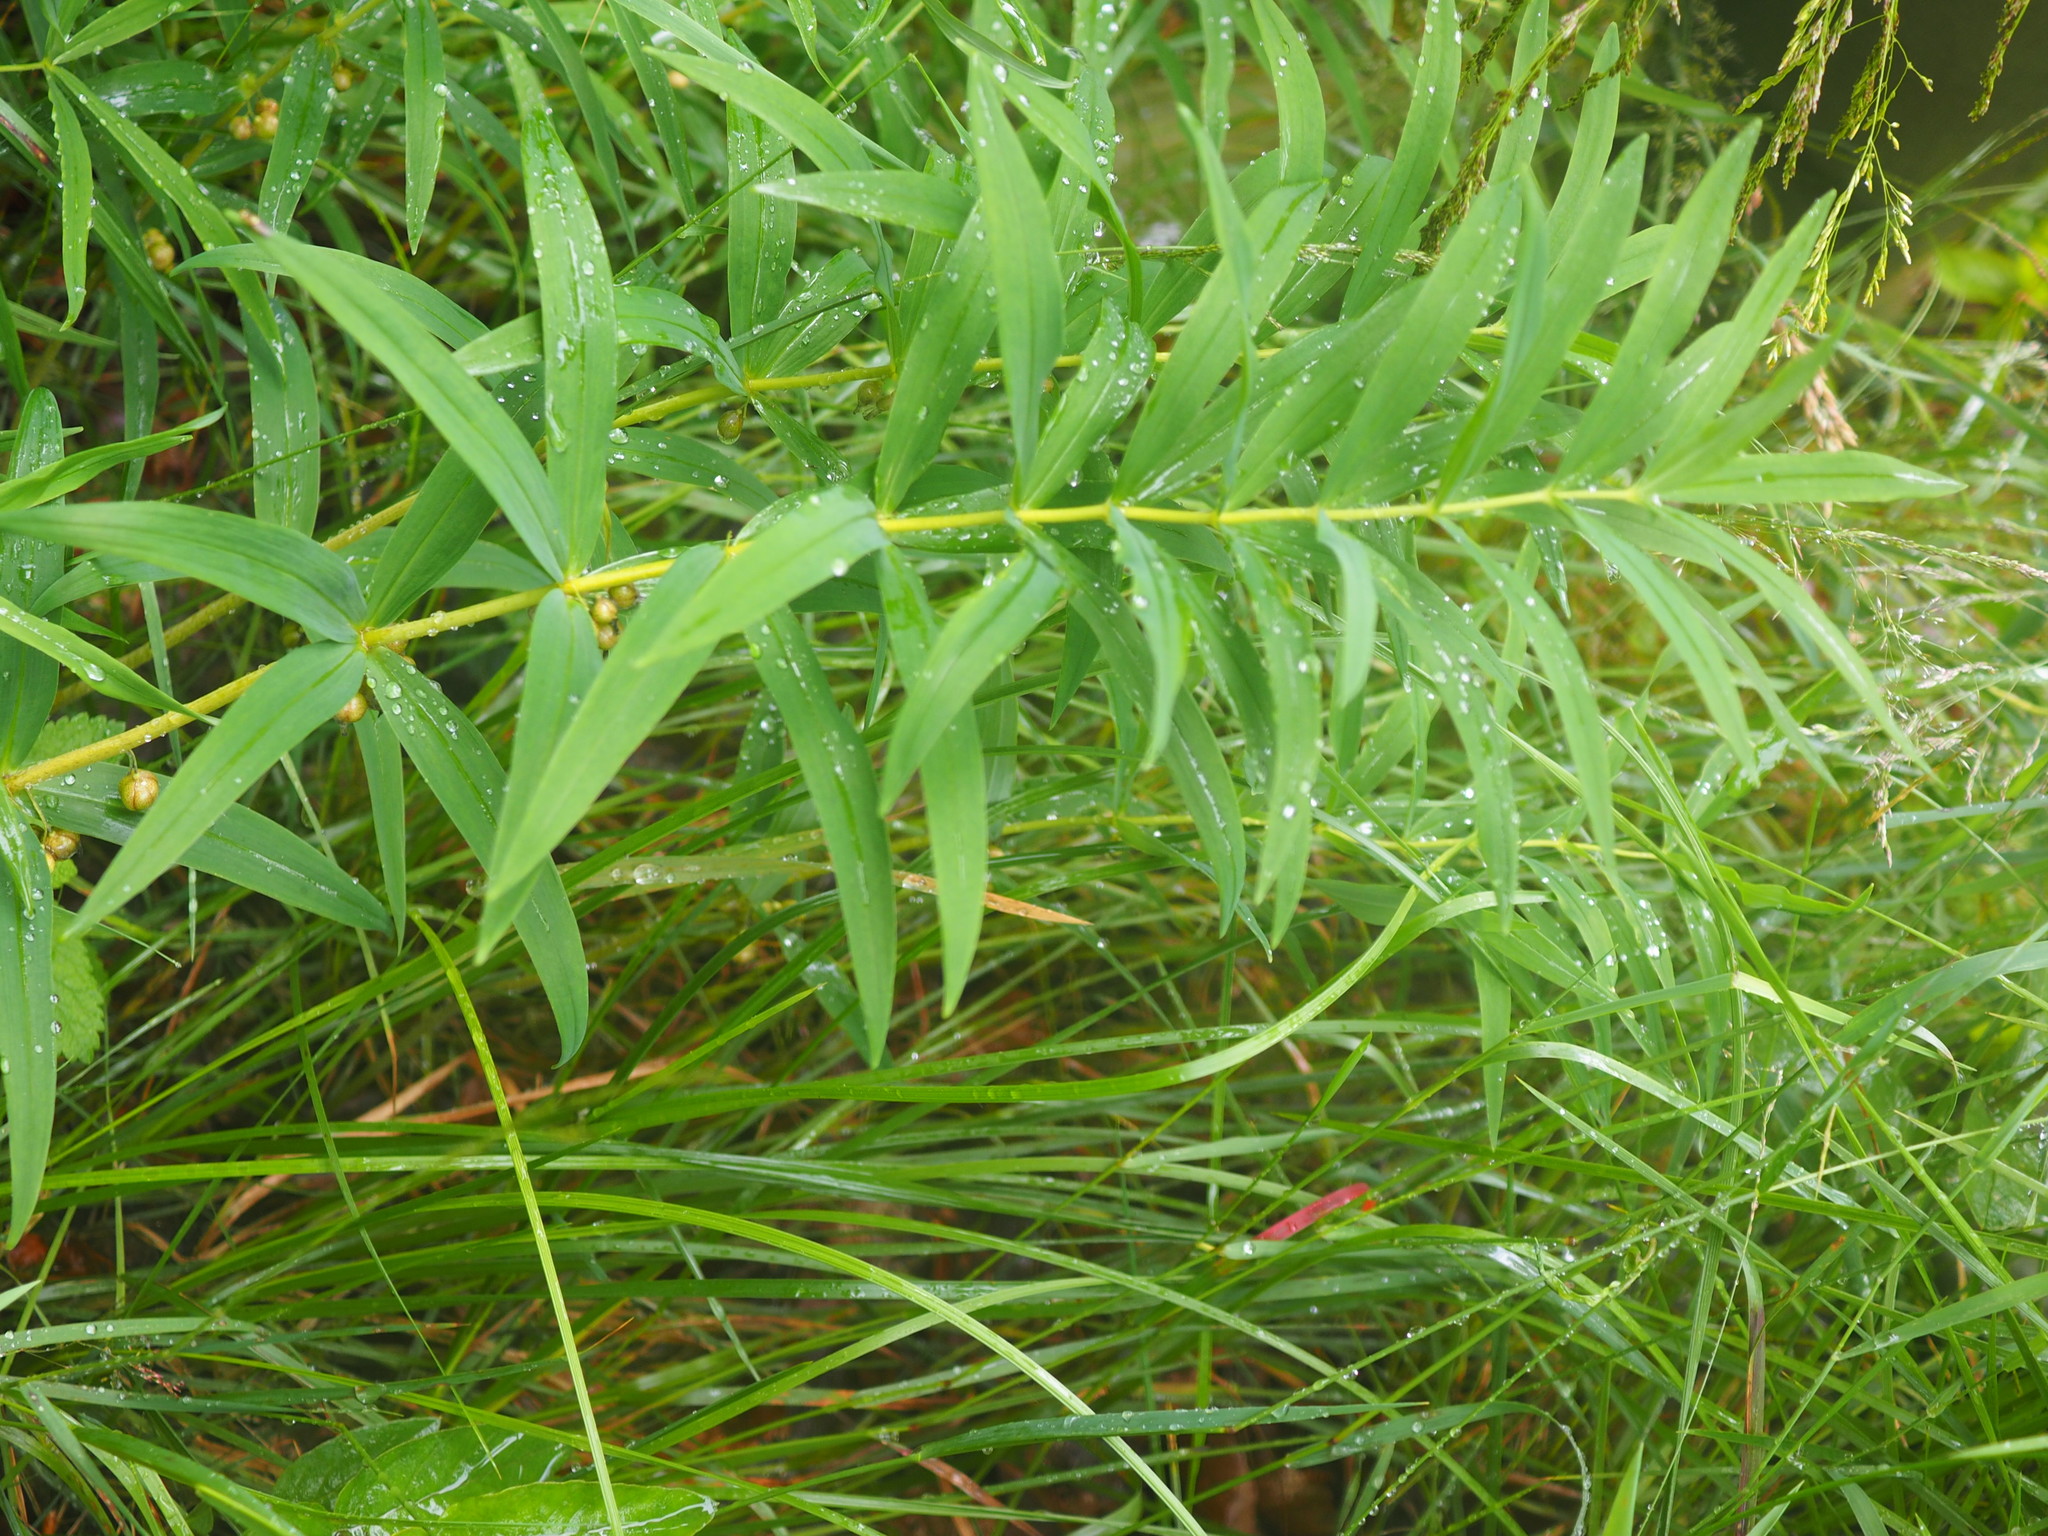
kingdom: Plantae
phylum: Tracheophyta
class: Liliopsida
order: Asparagales
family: Asparagaceae
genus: Polygonatum
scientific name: Polygonatum verticillatum
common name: Whorled solomon's-seal
